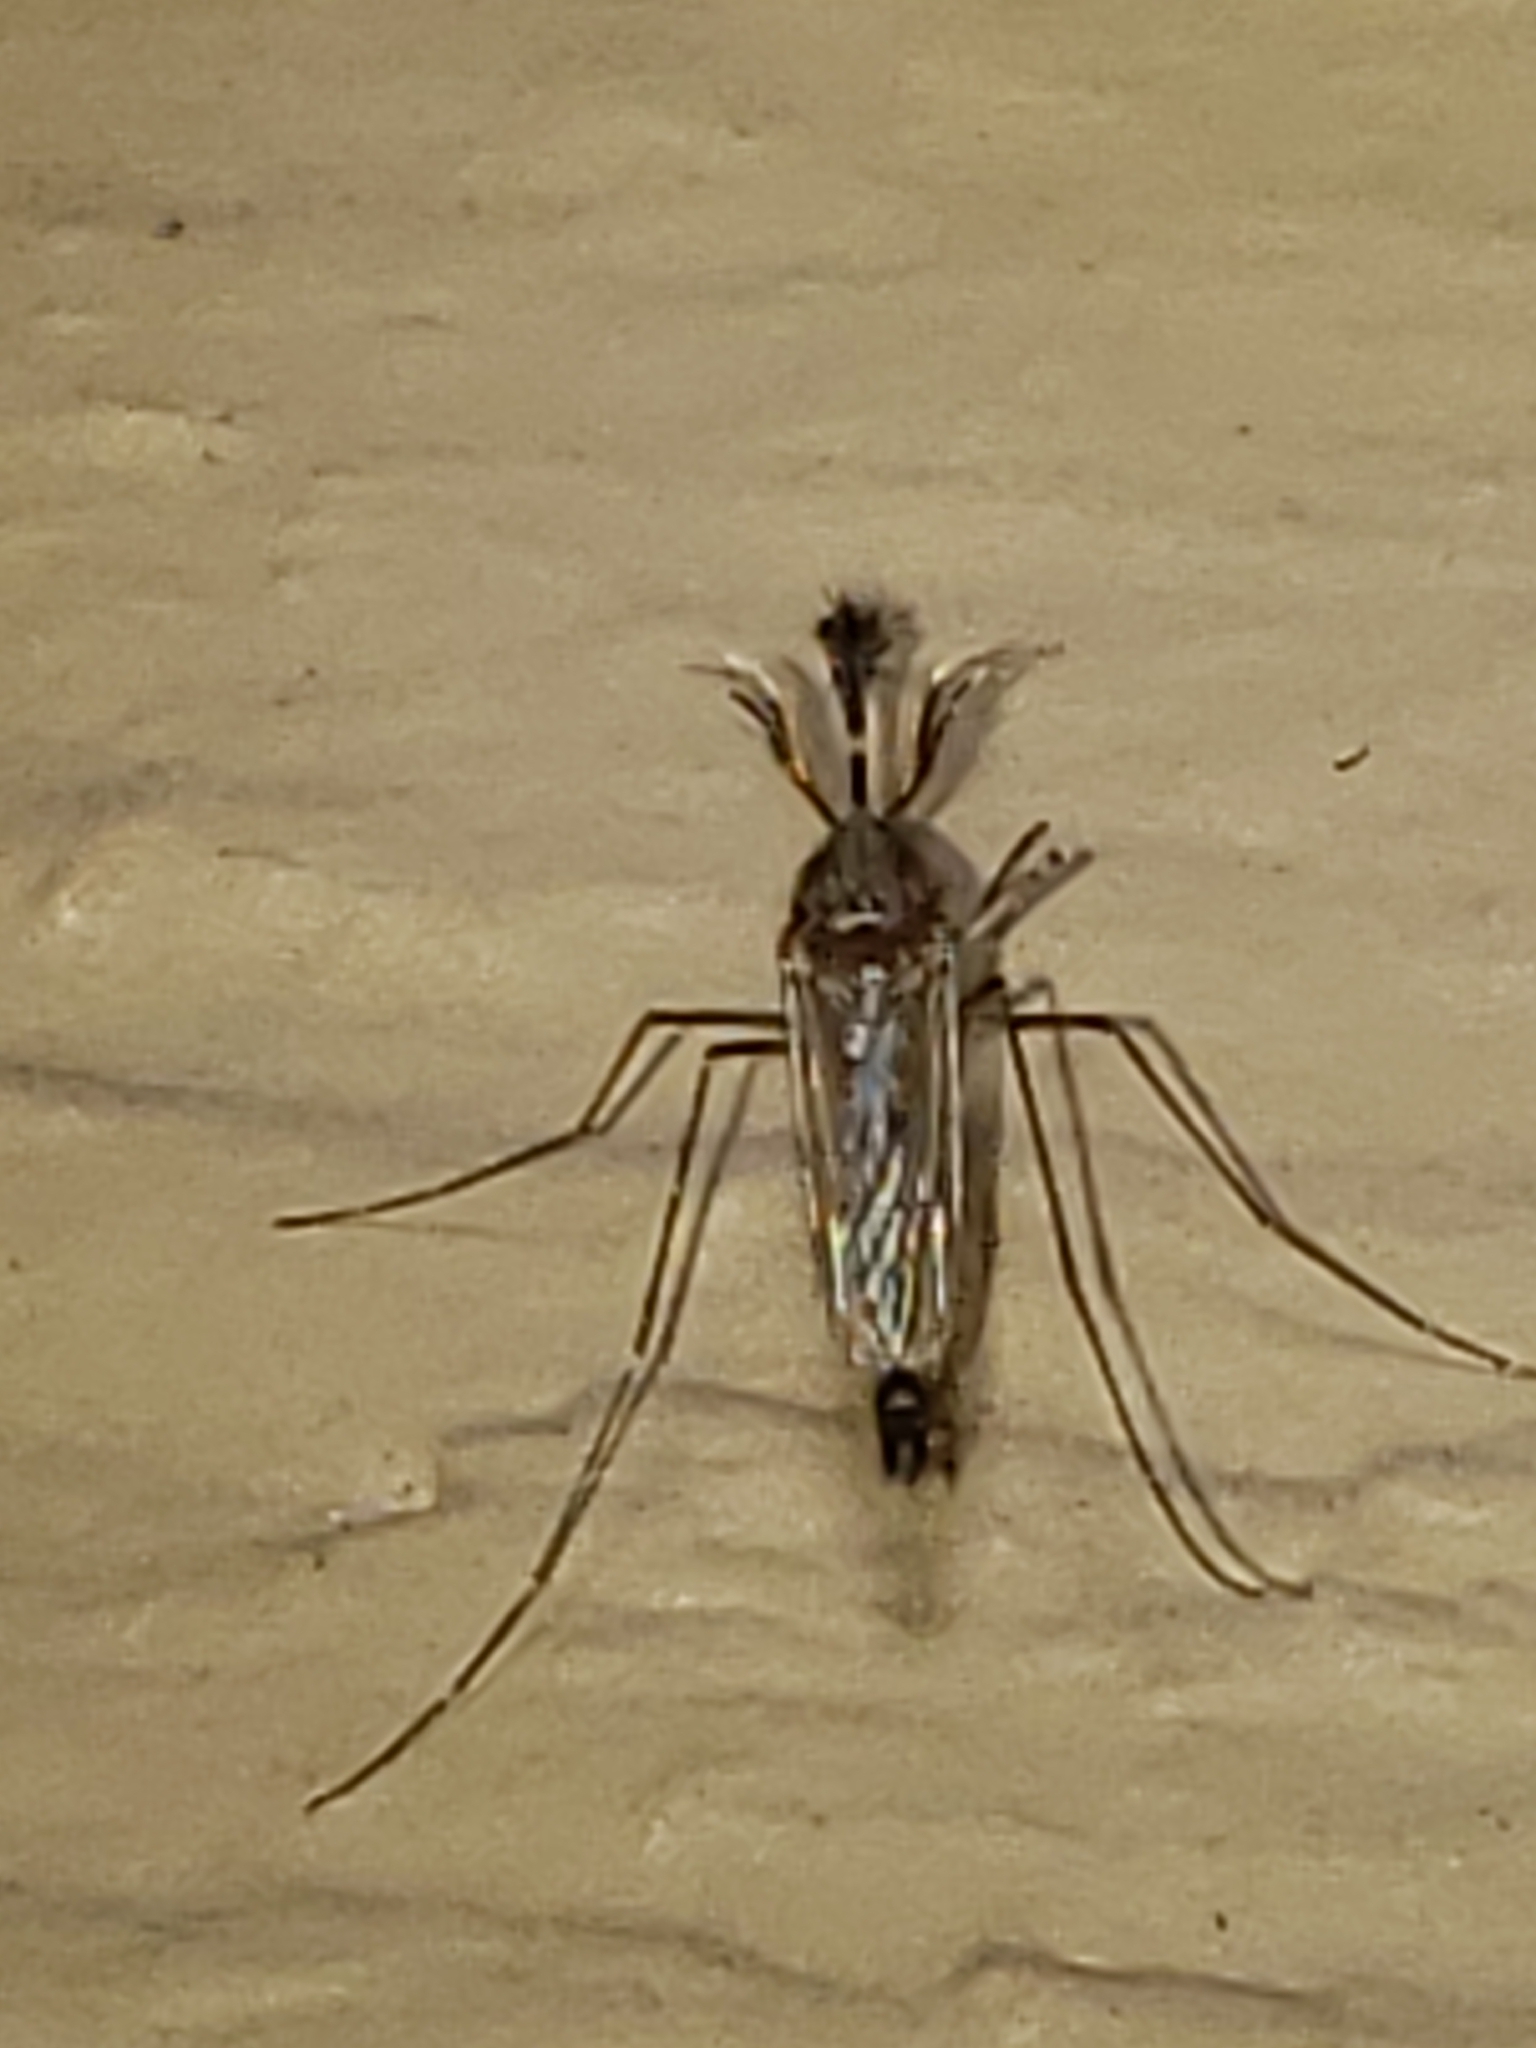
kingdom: Animalia
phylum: Arthropoda
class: Insecta
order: Diptera
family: Culicidae
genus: Aedes
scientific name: Aedes vexans
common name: Inland floodwater mosquito
